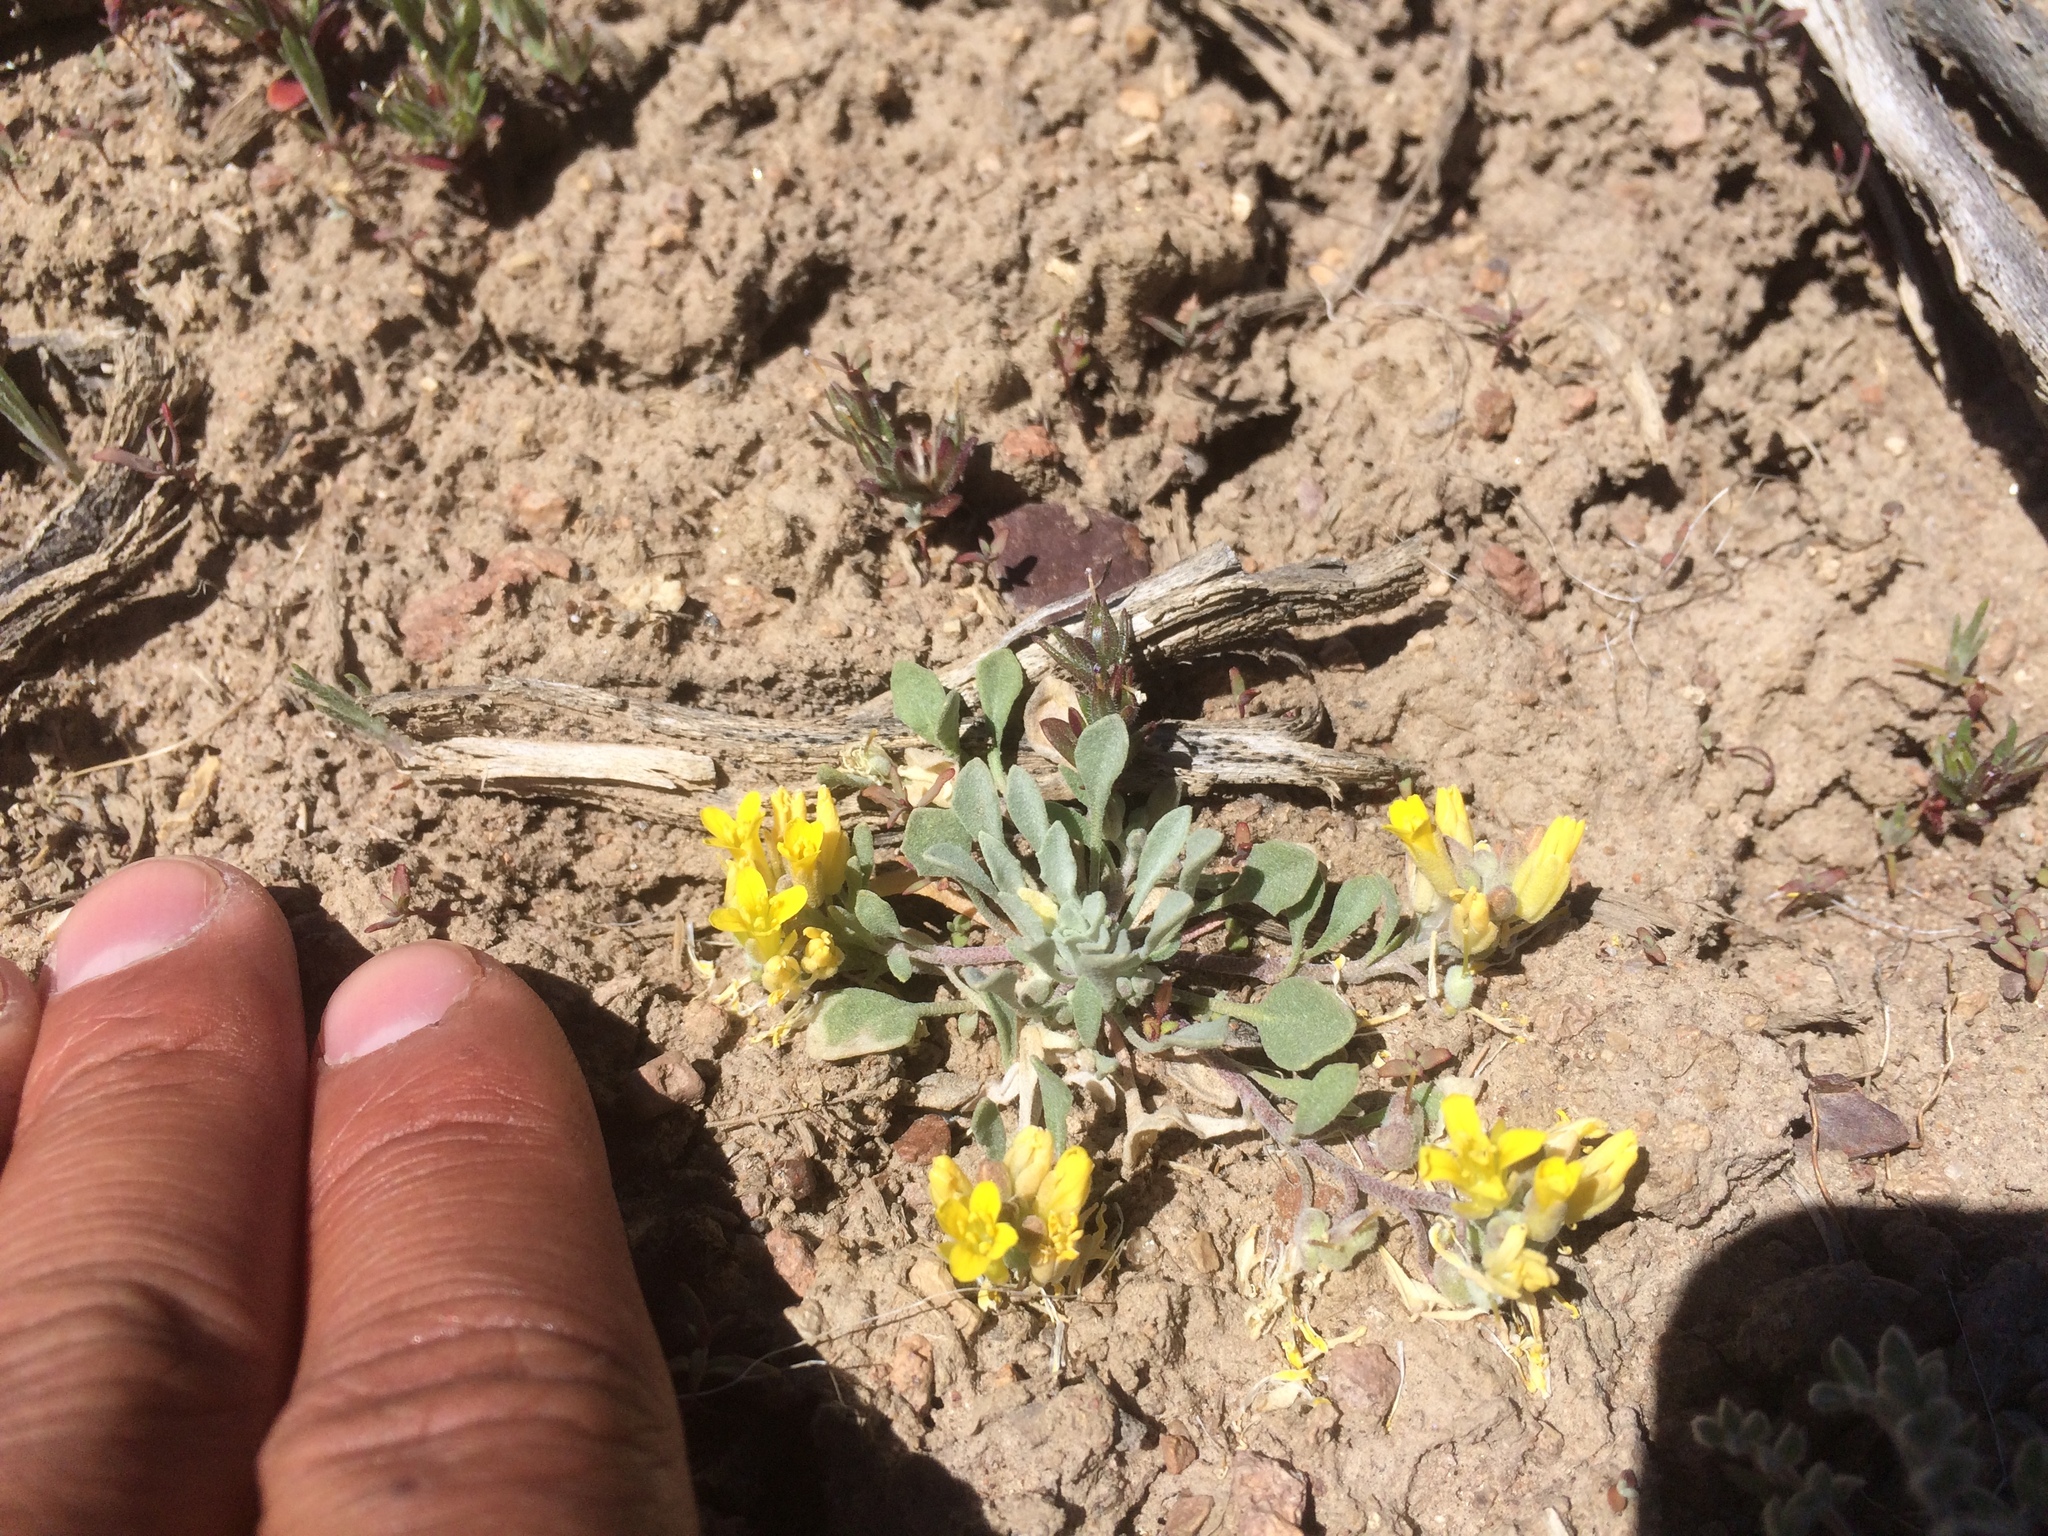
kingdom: Plantae
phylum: Tracheophyta
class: Magnoliopsida
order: Brassicales
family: Brassicaceae
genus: Physaria
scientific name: Physaria kingii
